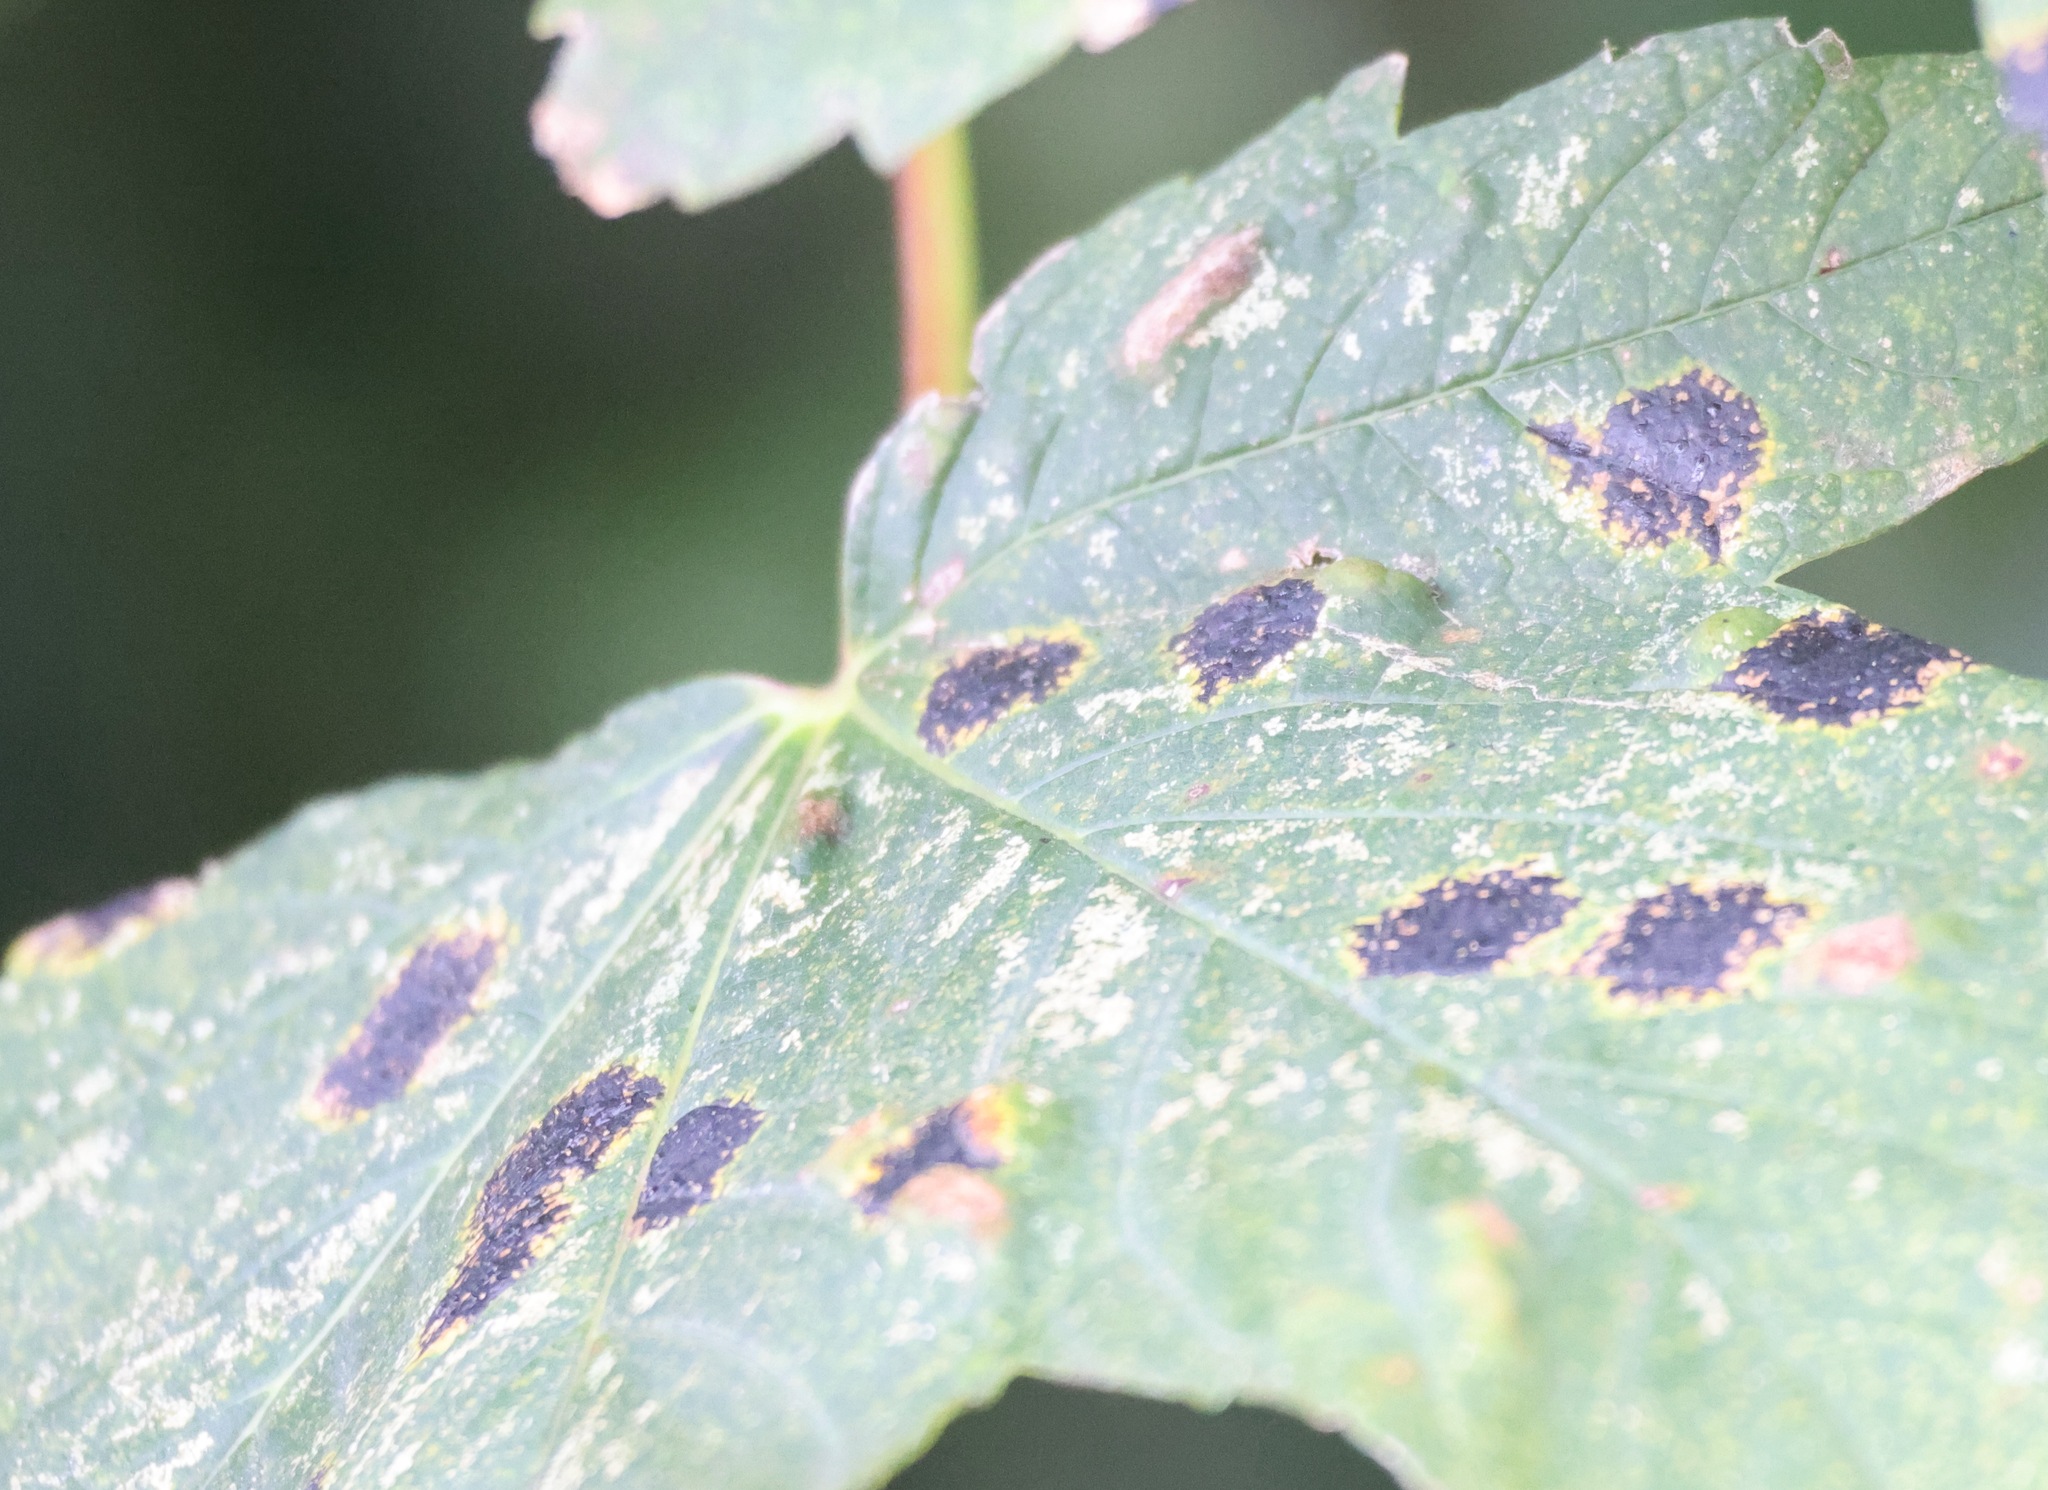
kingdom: Fungi
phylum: Ascomycota
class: Leotiomycetes
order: Rhytismatales
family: Rhytismataceae
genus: Rhytisma
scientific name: Rhytisma acerinum
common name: European tar spot
